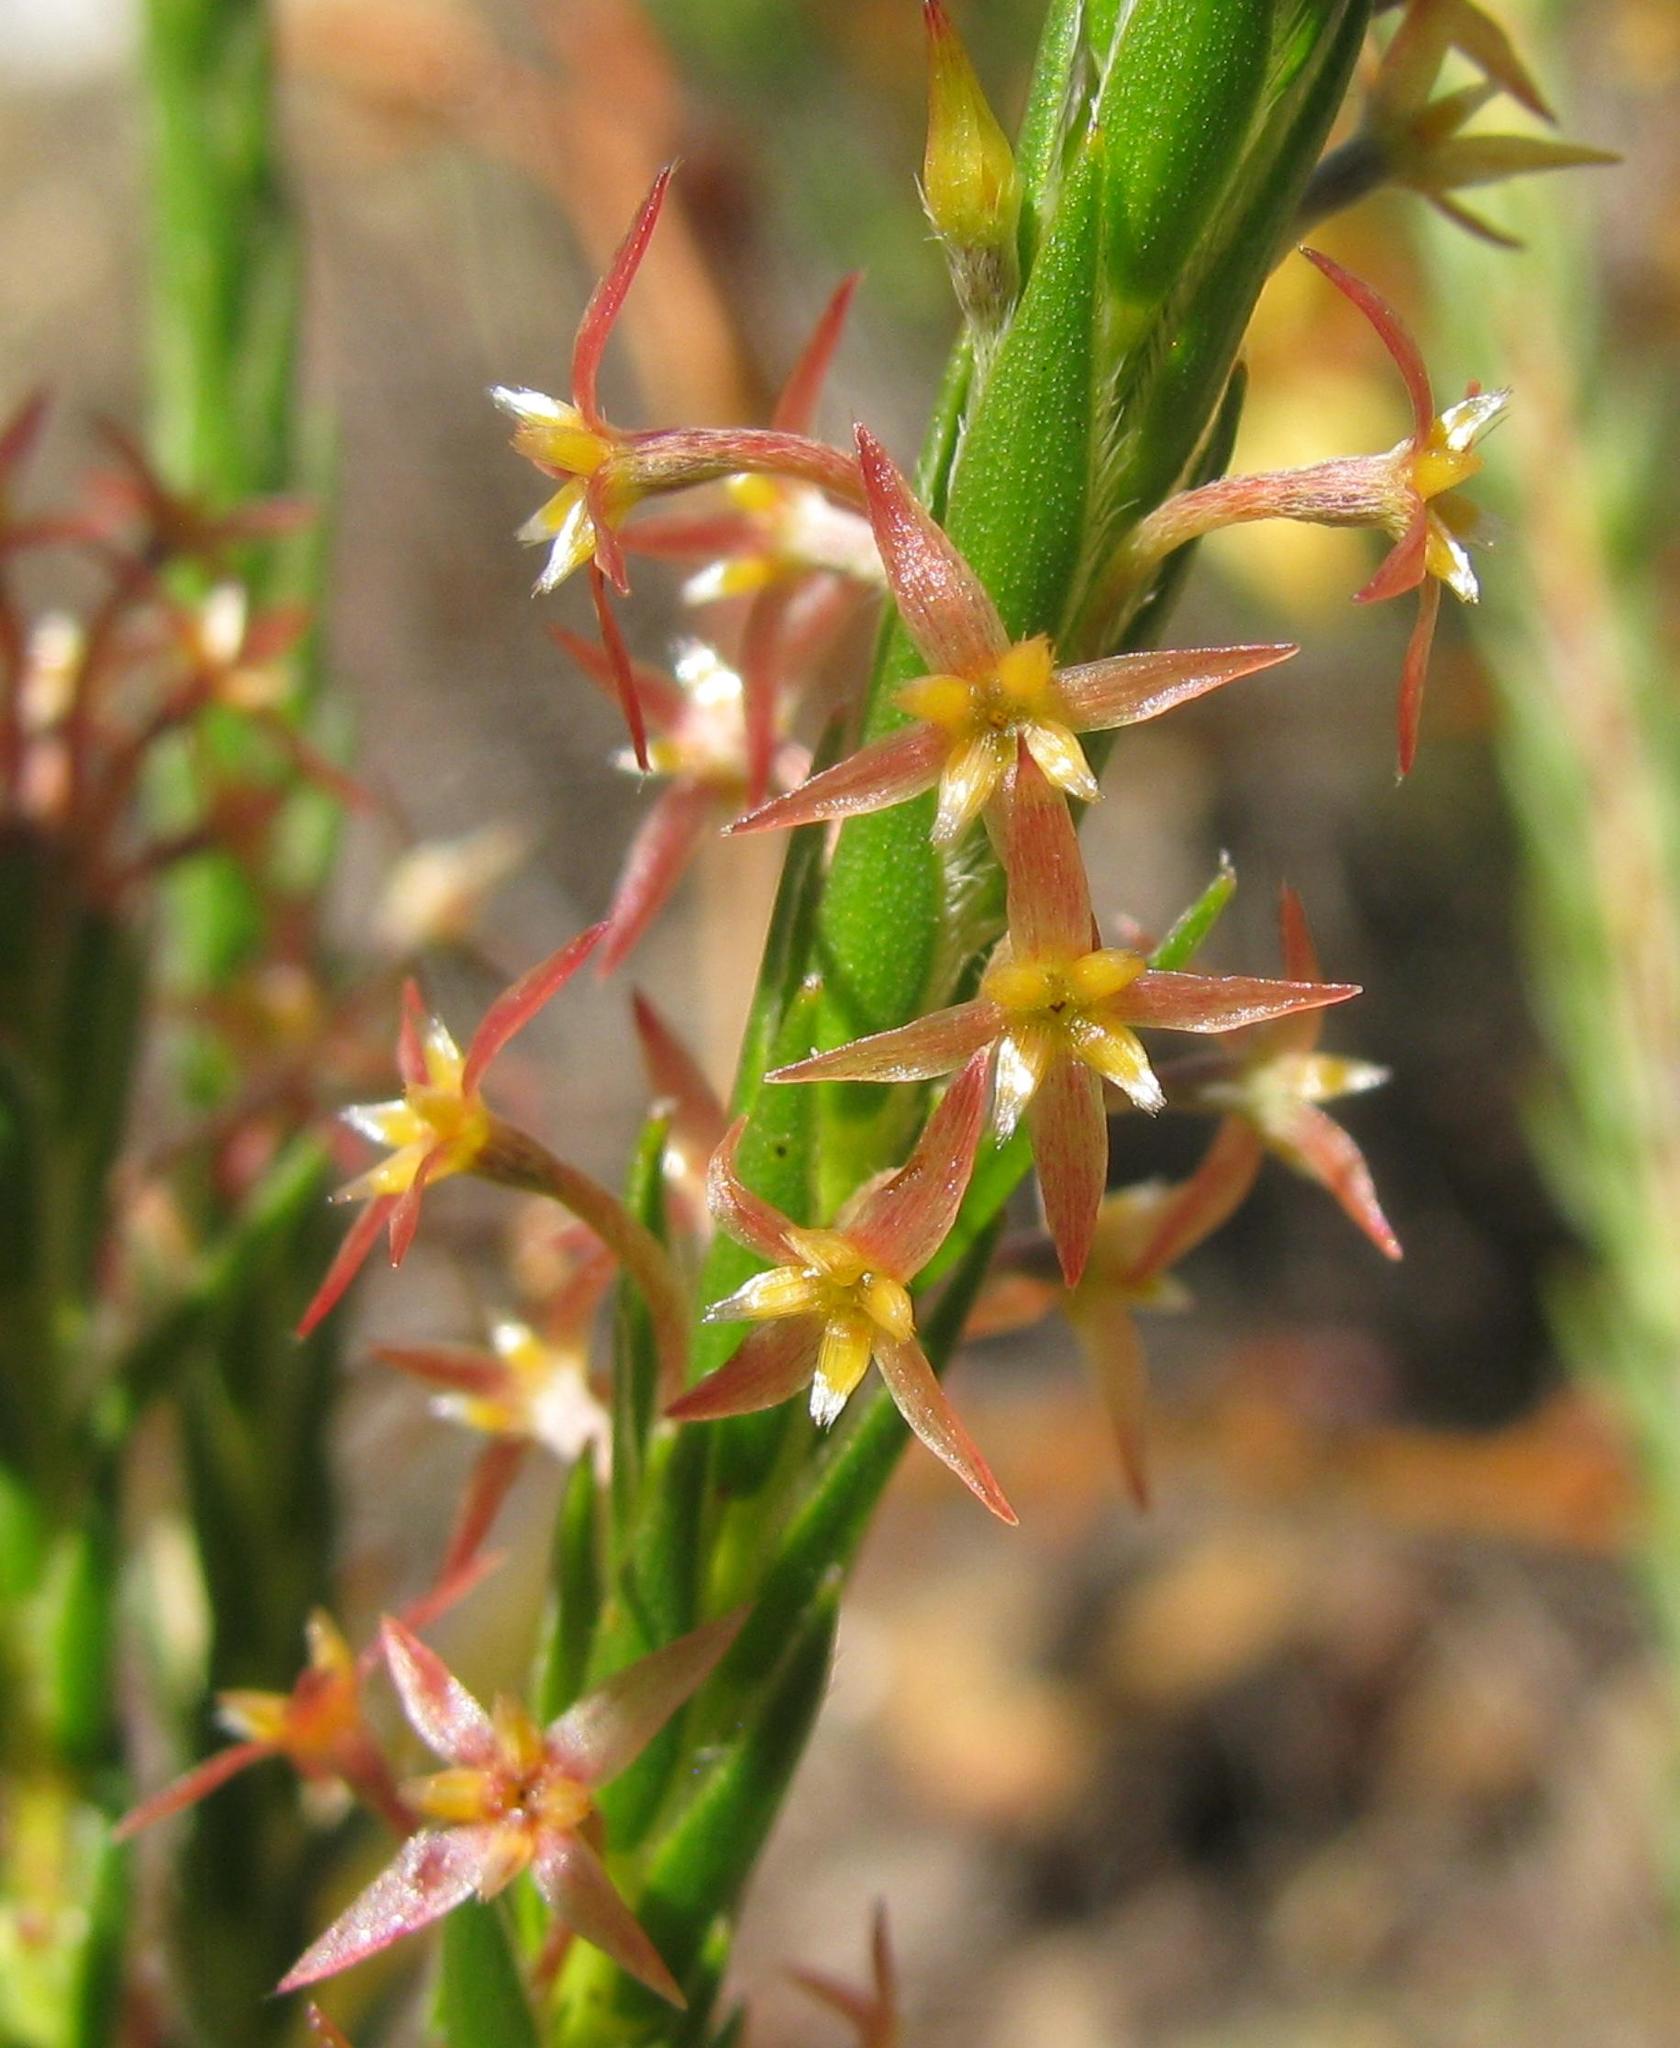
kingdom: Plantae
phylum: Tracheophyta
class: Magnoliopsida
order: Malvales
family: Thymelaeaceae
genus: Struthiola
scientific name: Struthiola tetralepis
